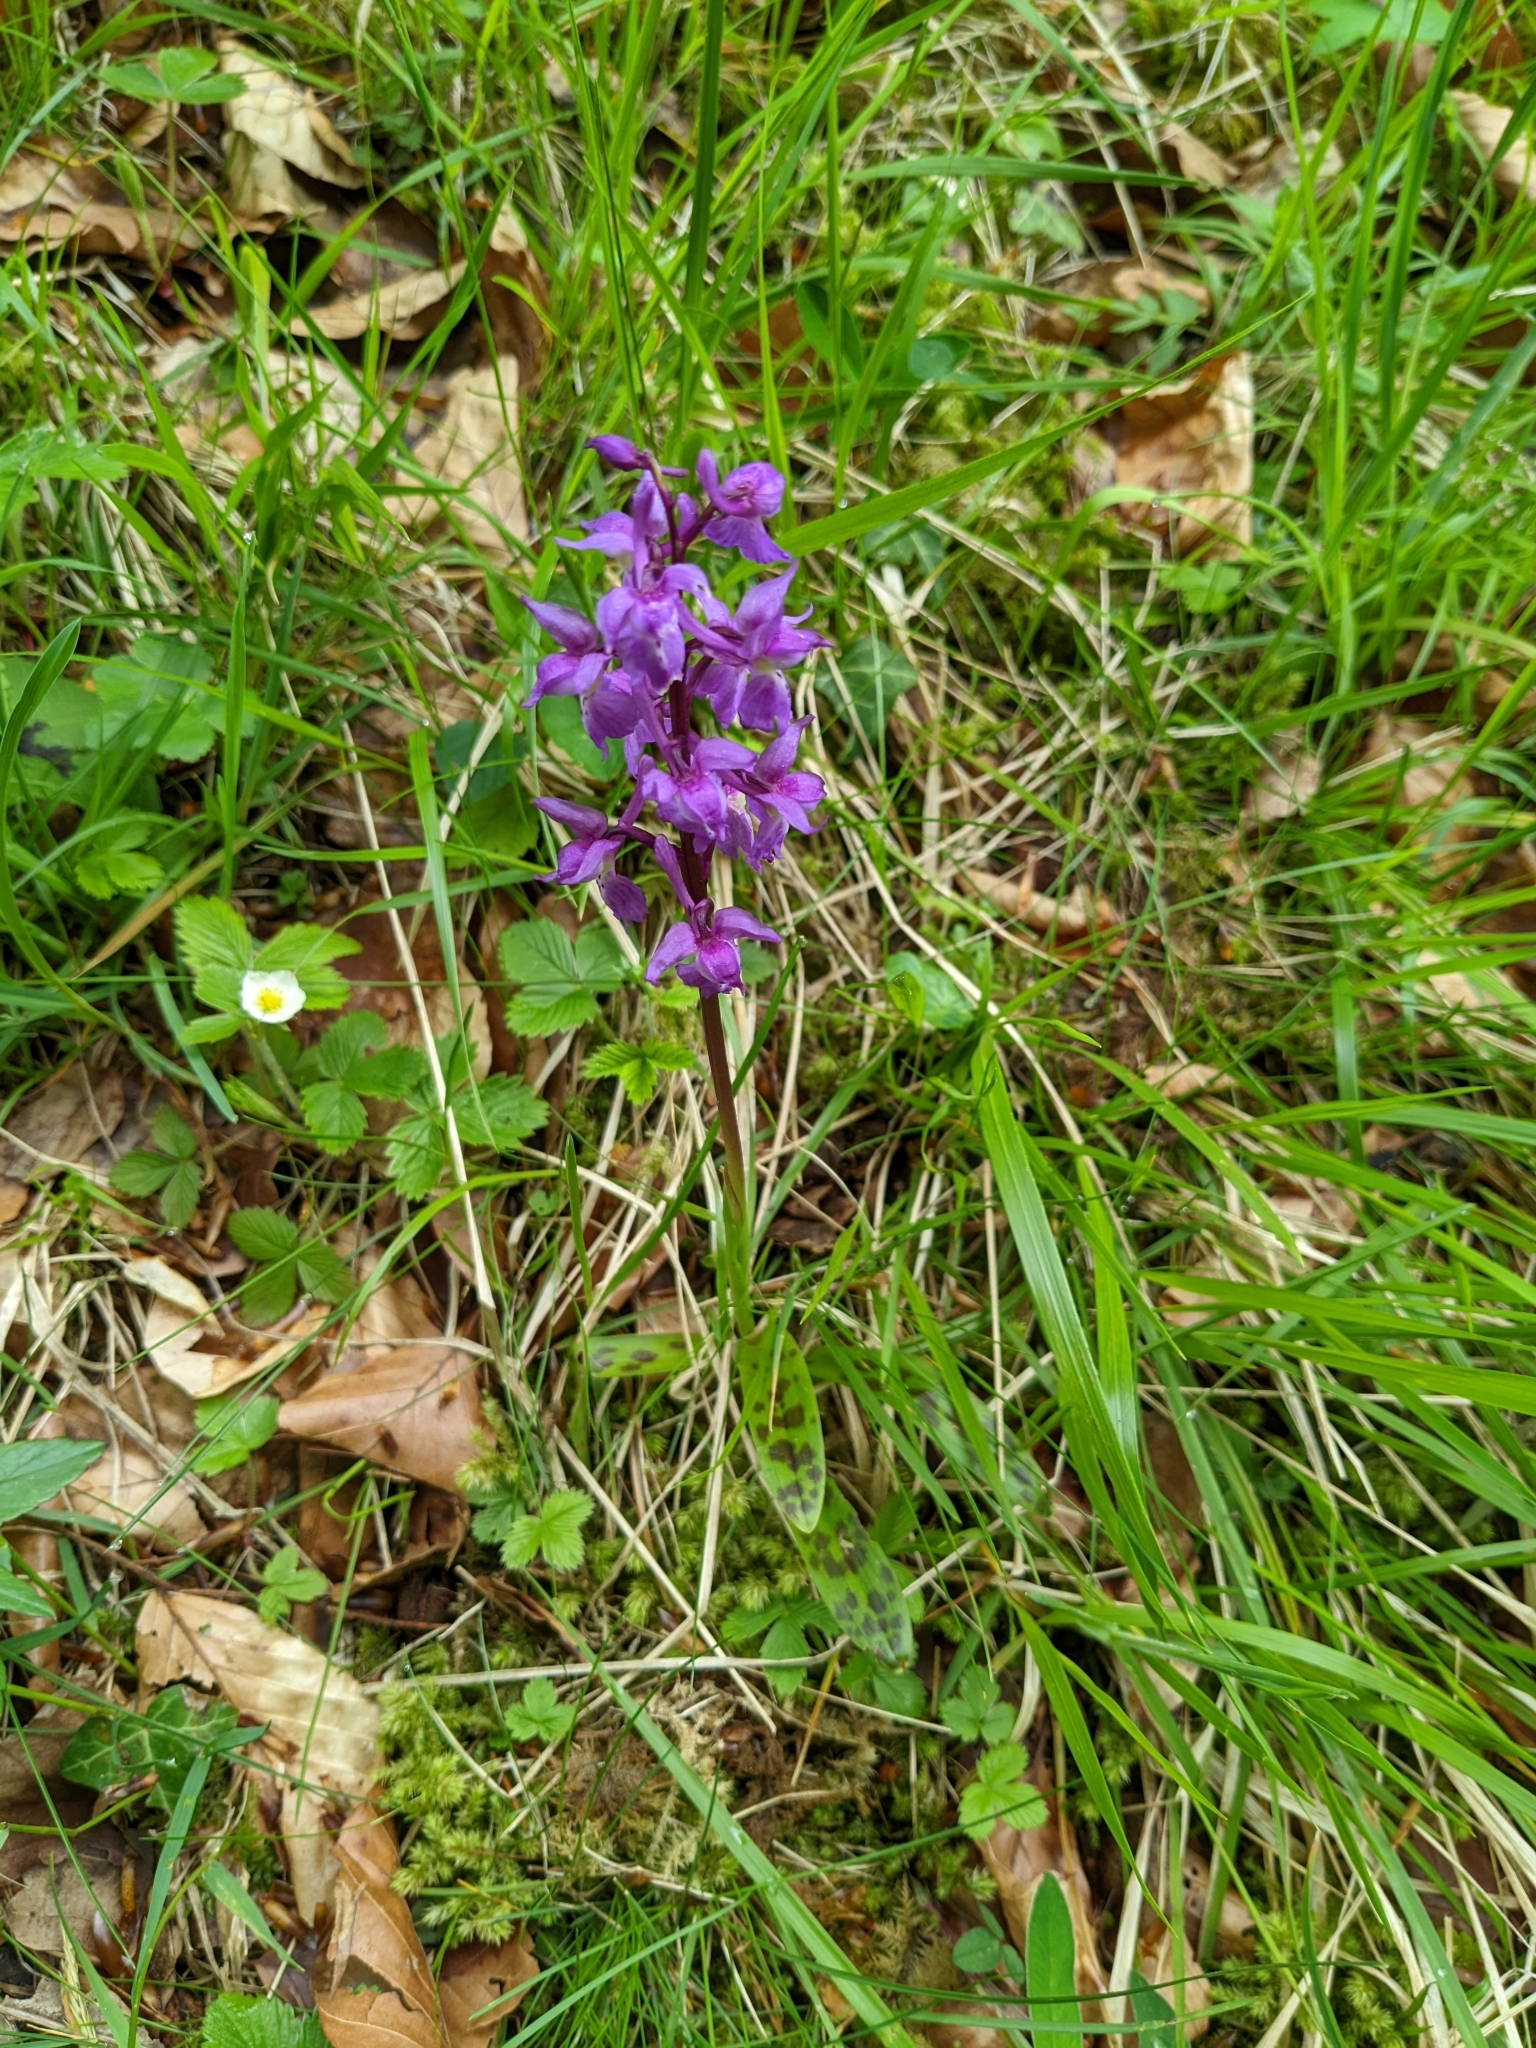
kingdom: Plantae
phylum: Tracheophyta
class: Liliopsida
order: Asparagales
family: Orchidaceae
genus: Orchis
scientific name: Orchis mascula
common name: Early-purple orchid
